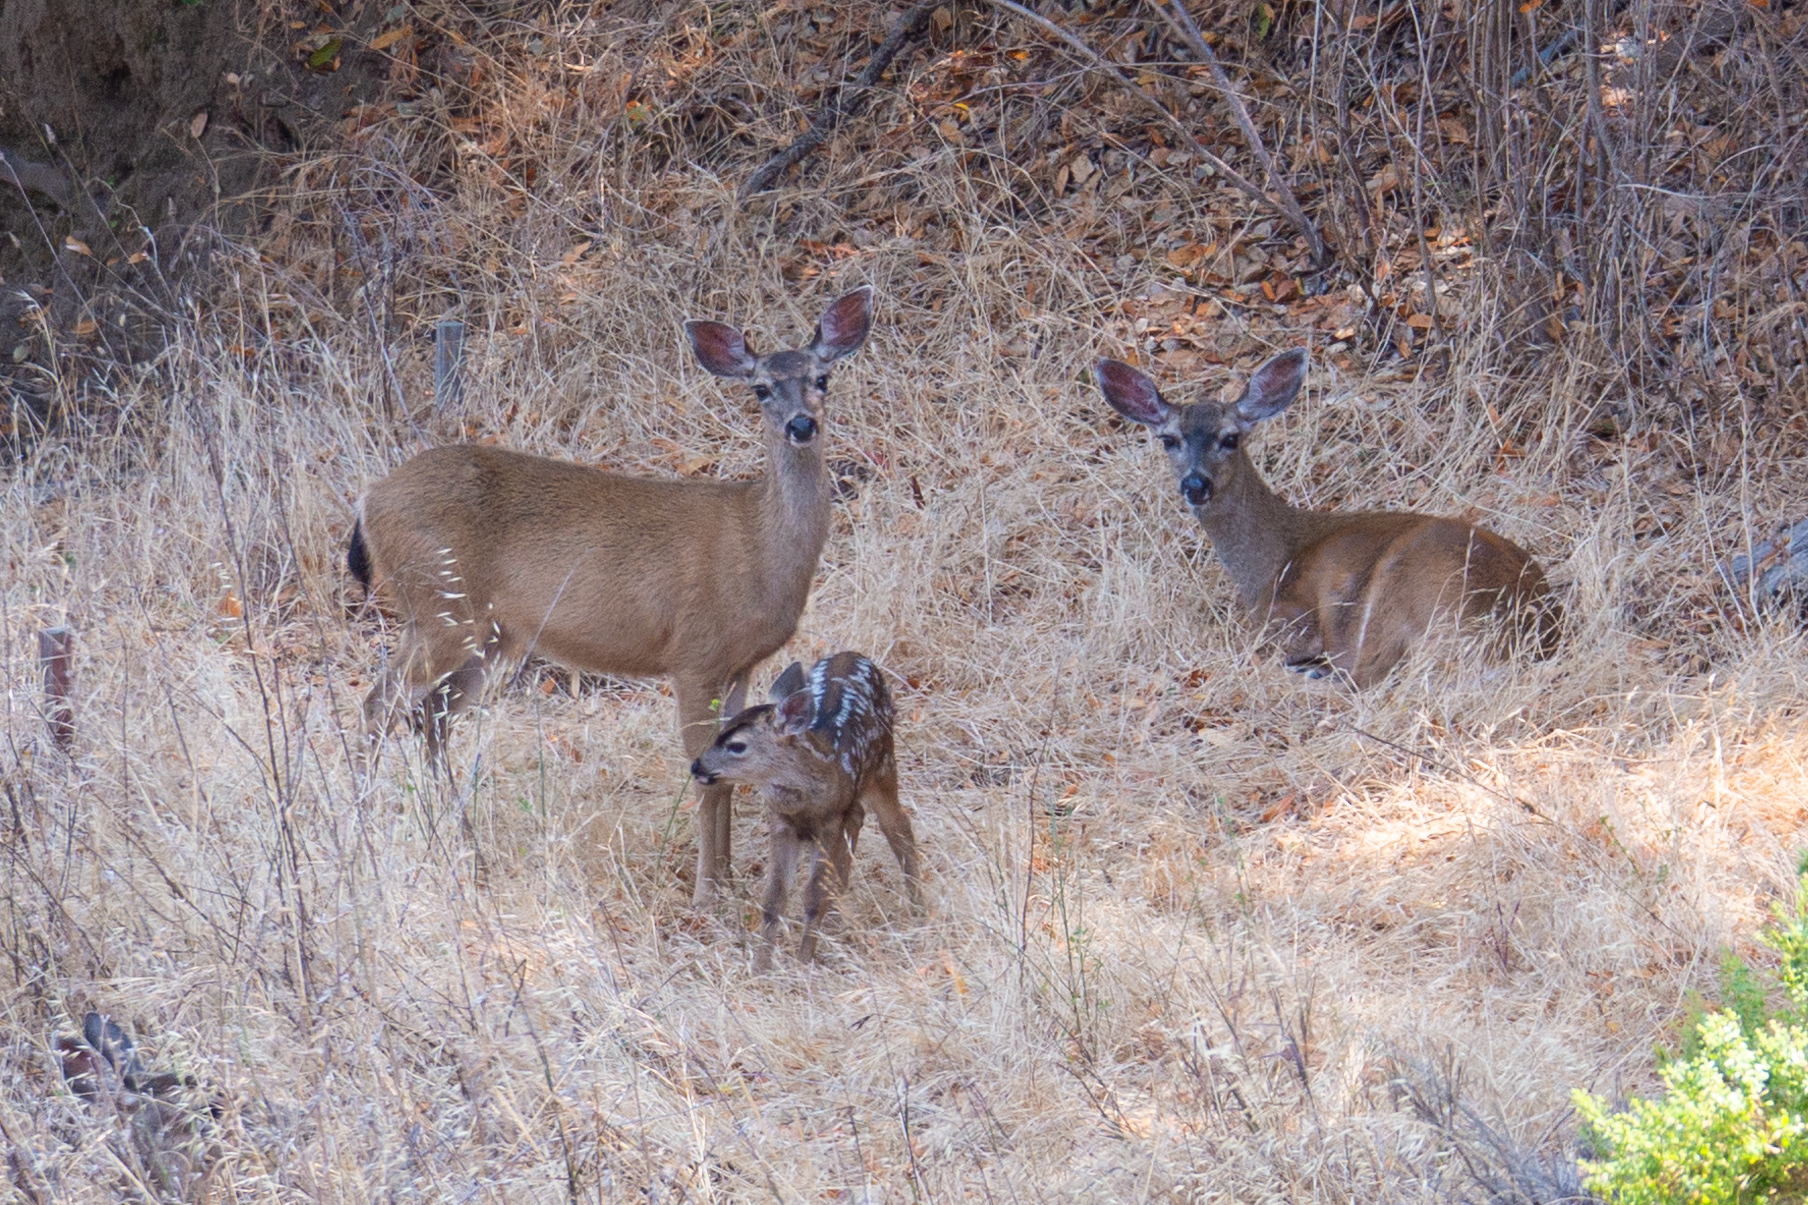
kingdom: Animalia
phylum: Chordata
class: Mammalia
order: Artiodactyla
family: Cervidae
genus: Odocoileus
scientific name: Odocoileus hemionus
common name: Mule deer
